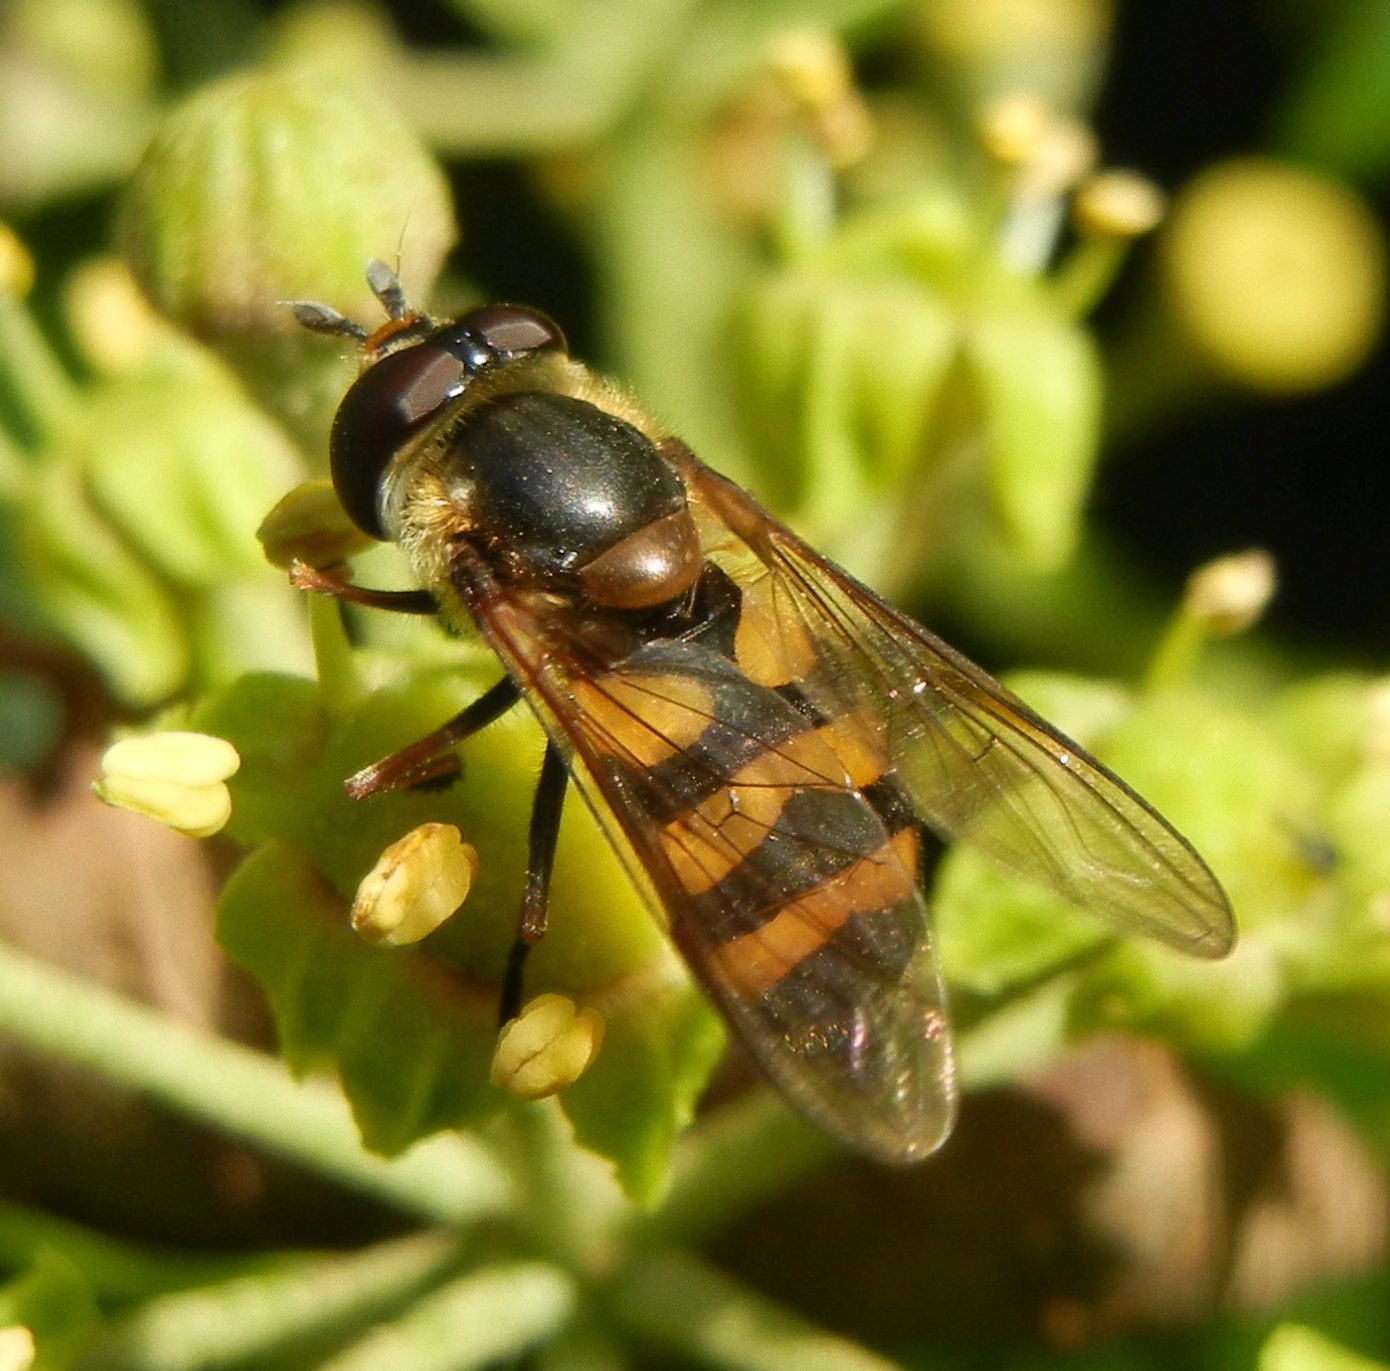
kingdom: Animalia
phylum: Arthropoda
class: Insecta
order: Diptera
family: Syrphidae
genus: Didea
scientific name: Didea fasciata
